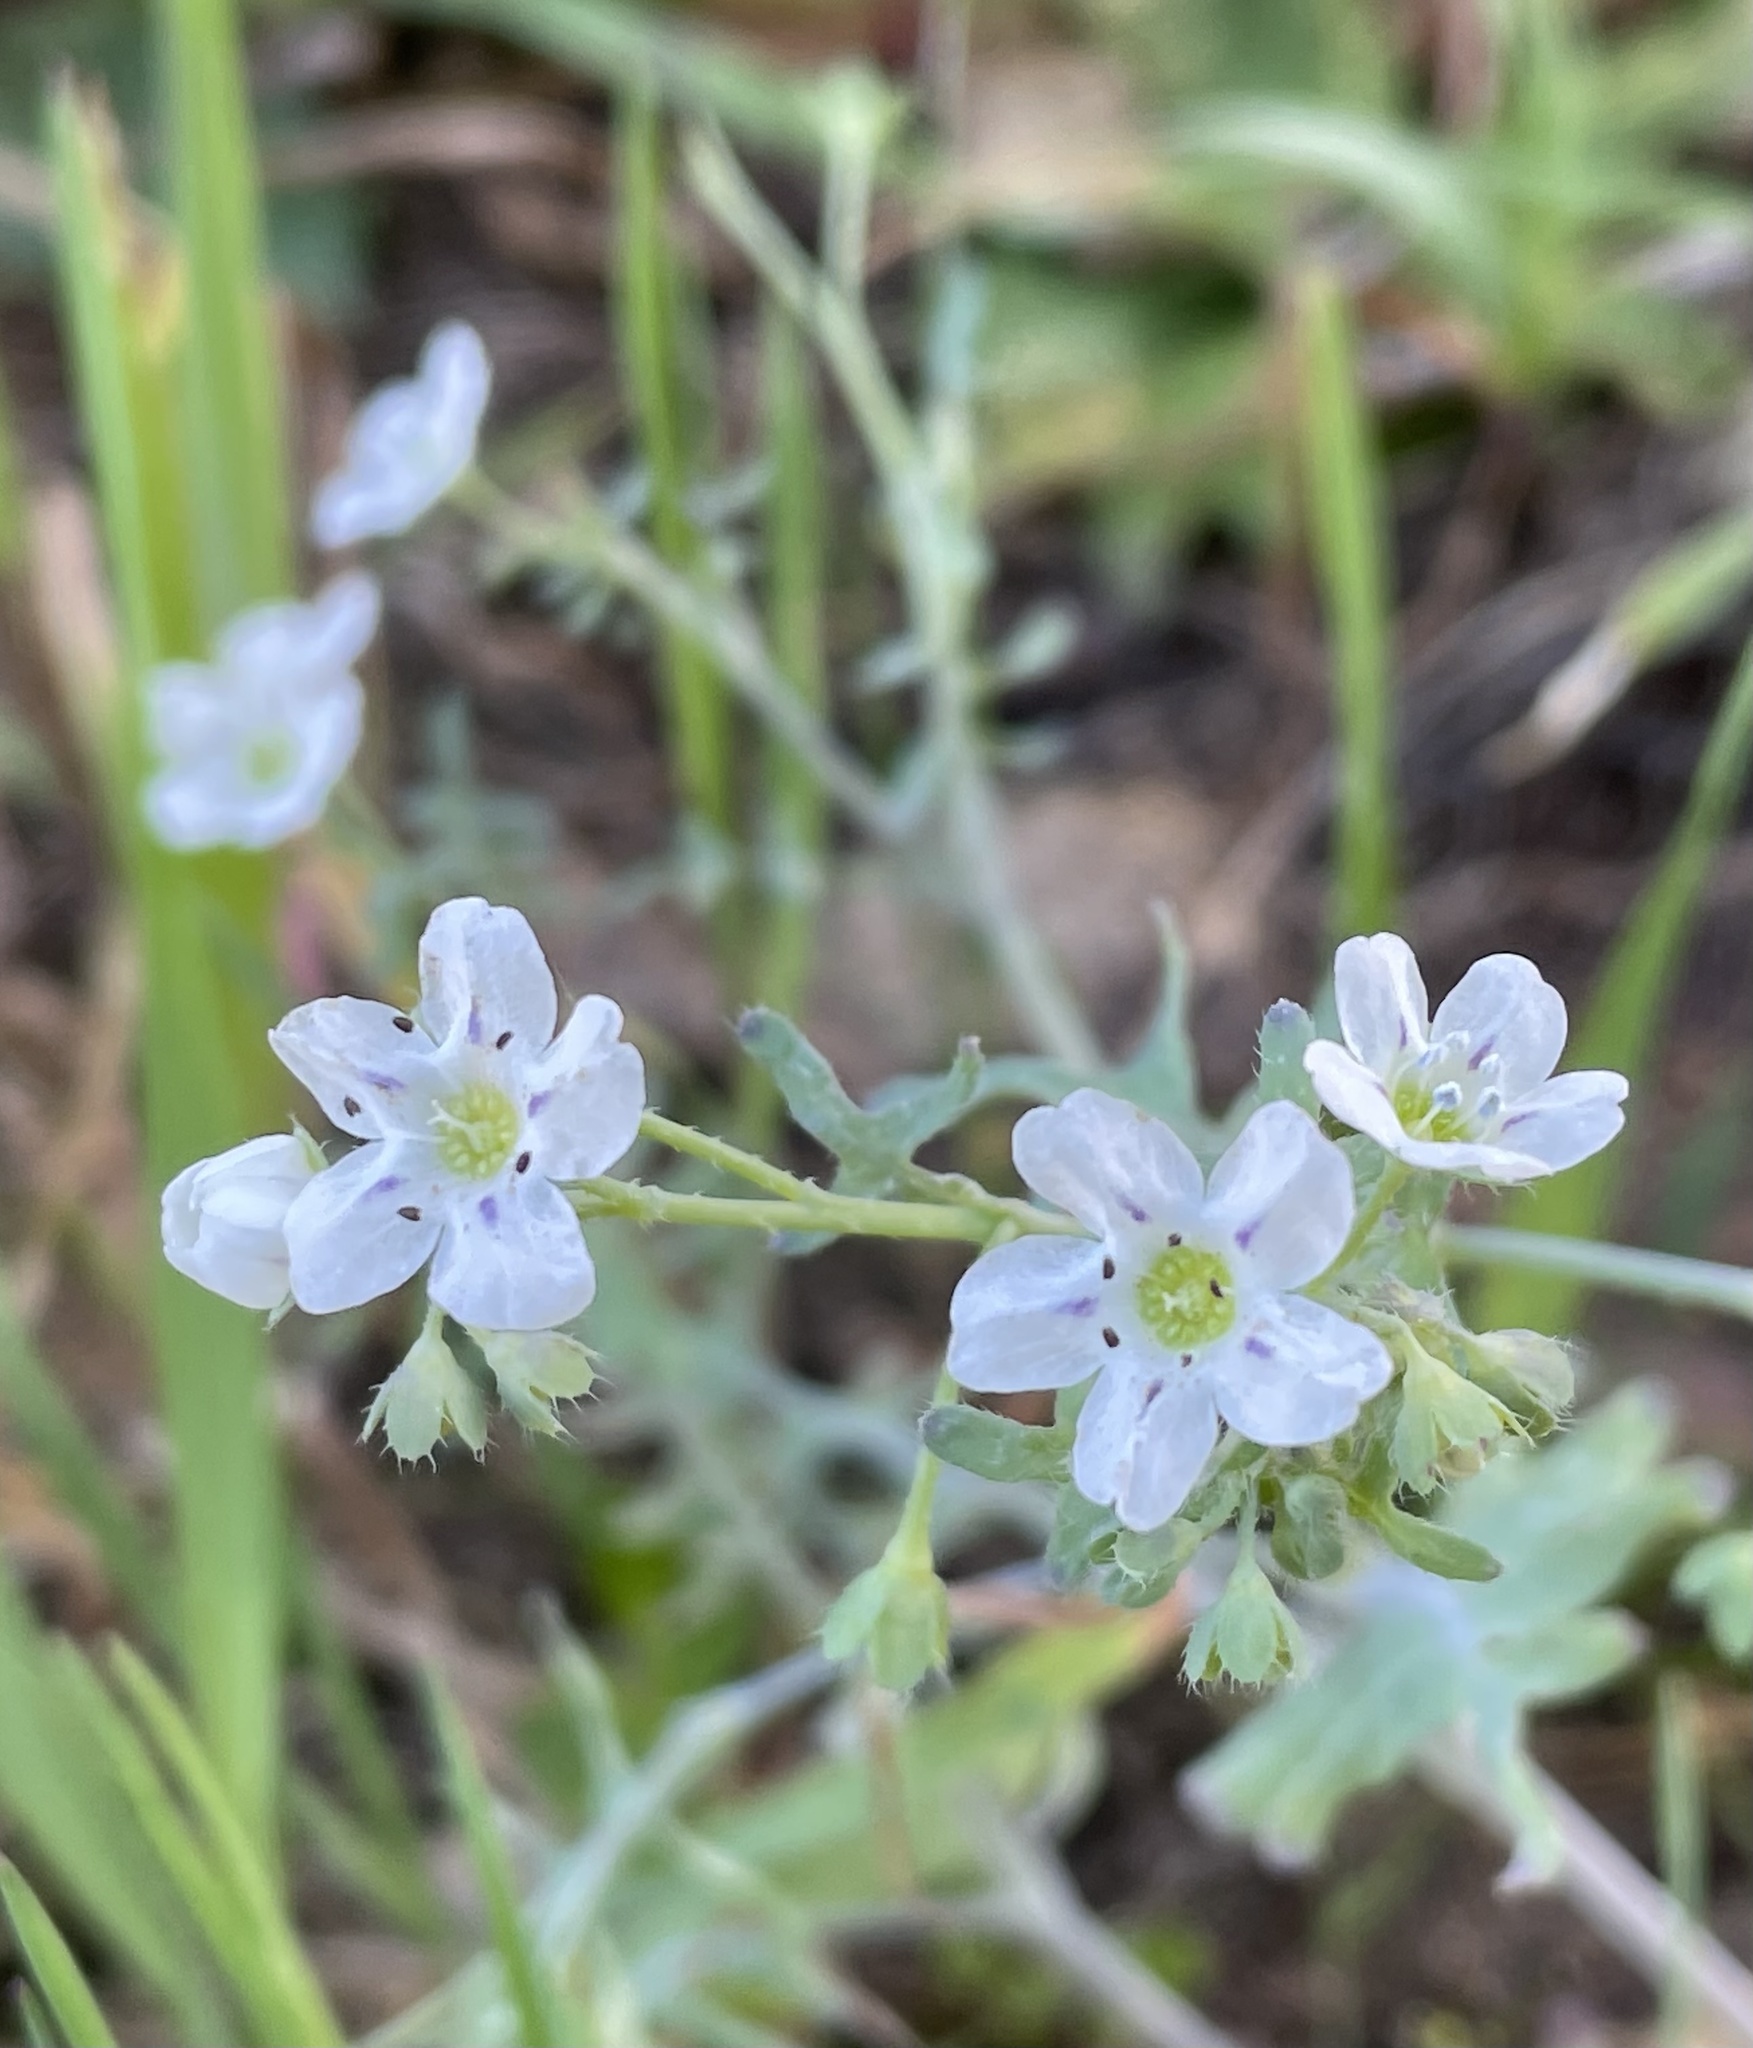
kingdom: Plantae
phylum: Tracheophyta
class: Magnoliopsida
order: Boraginales
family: Hydrophyllaceae
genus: Pholistoma
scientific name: Pholistoma membranaceum
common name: White fiesta-flower
